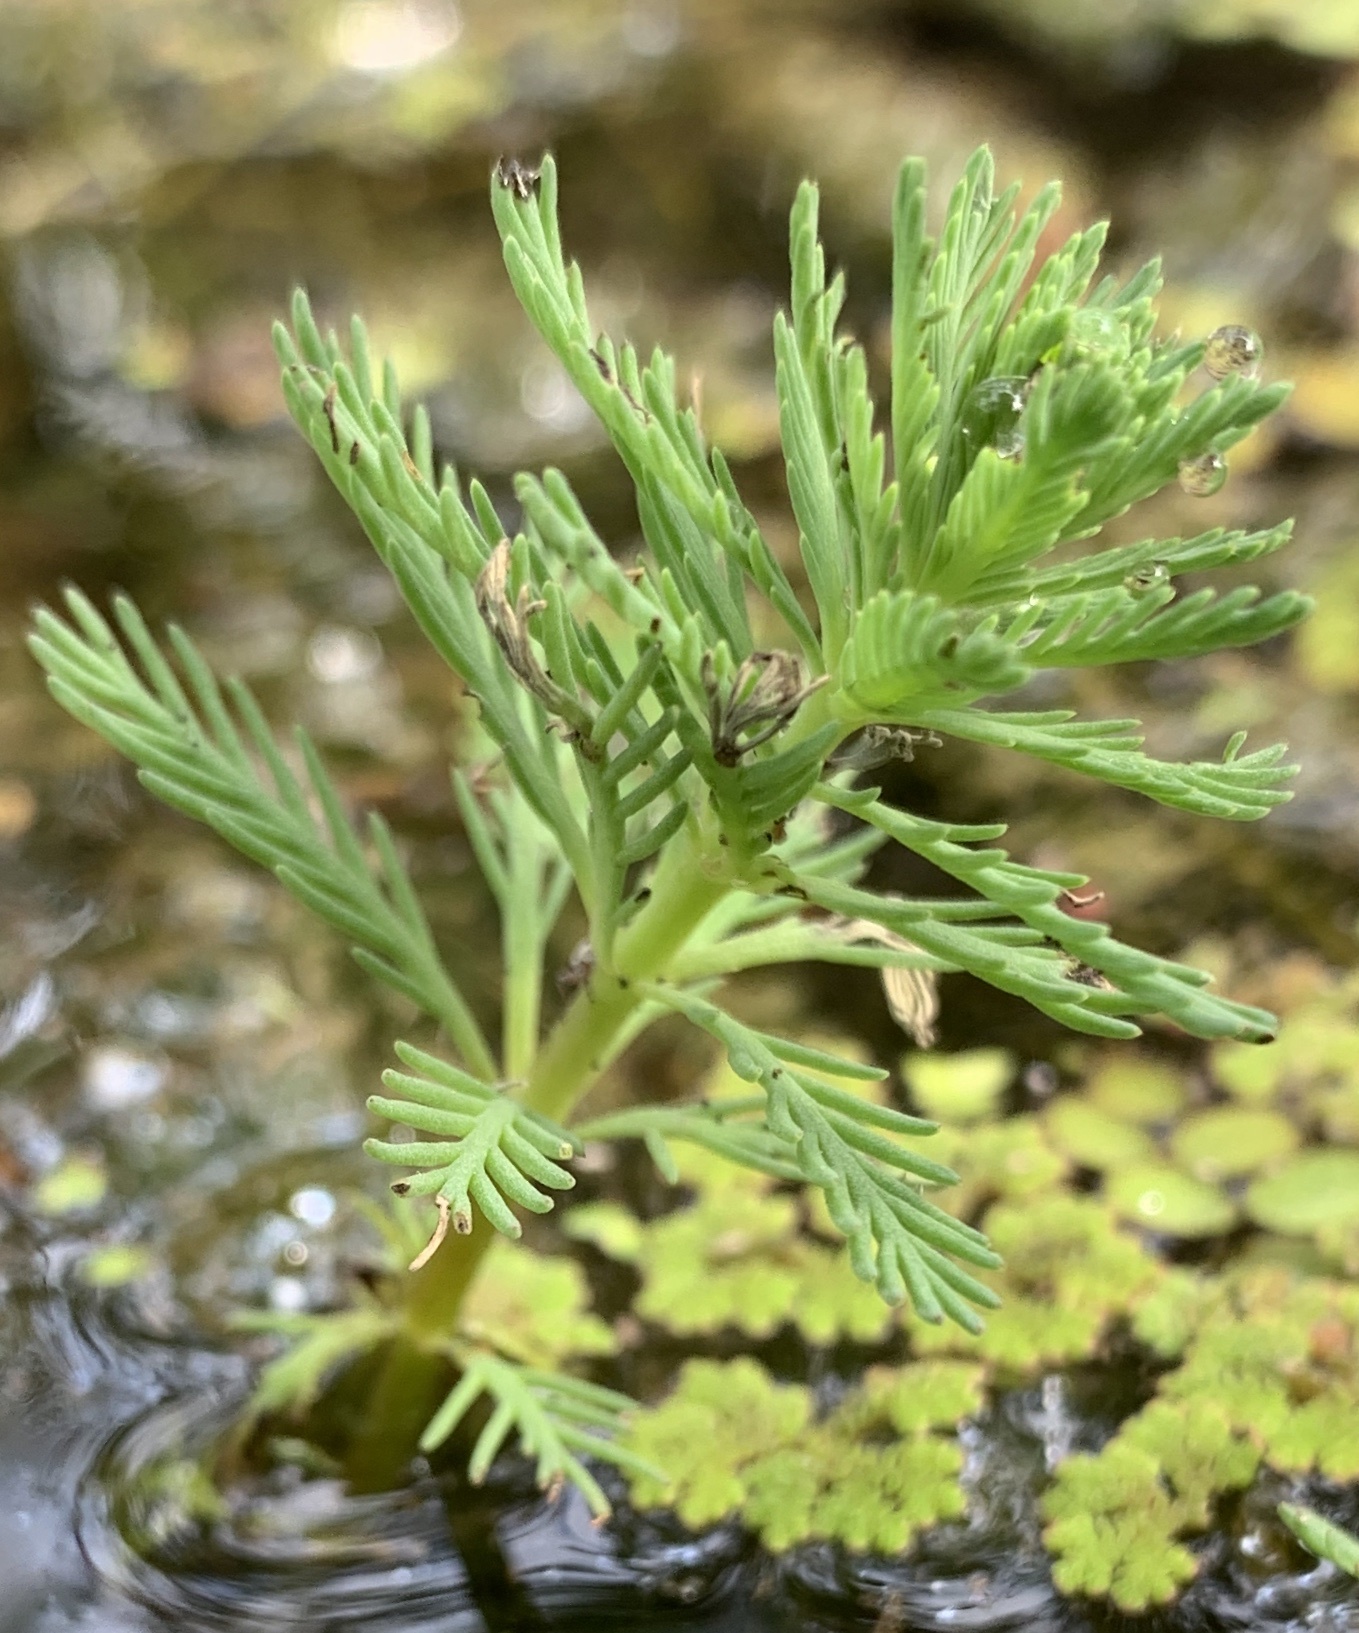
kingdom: Plantae
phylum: Tracheophyta
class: Magnoliopsida
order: Saxifragales
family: Haloragaceae
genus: Myriophyllum
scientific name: Myriophyllum aquaticum
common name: Parrot's feather
